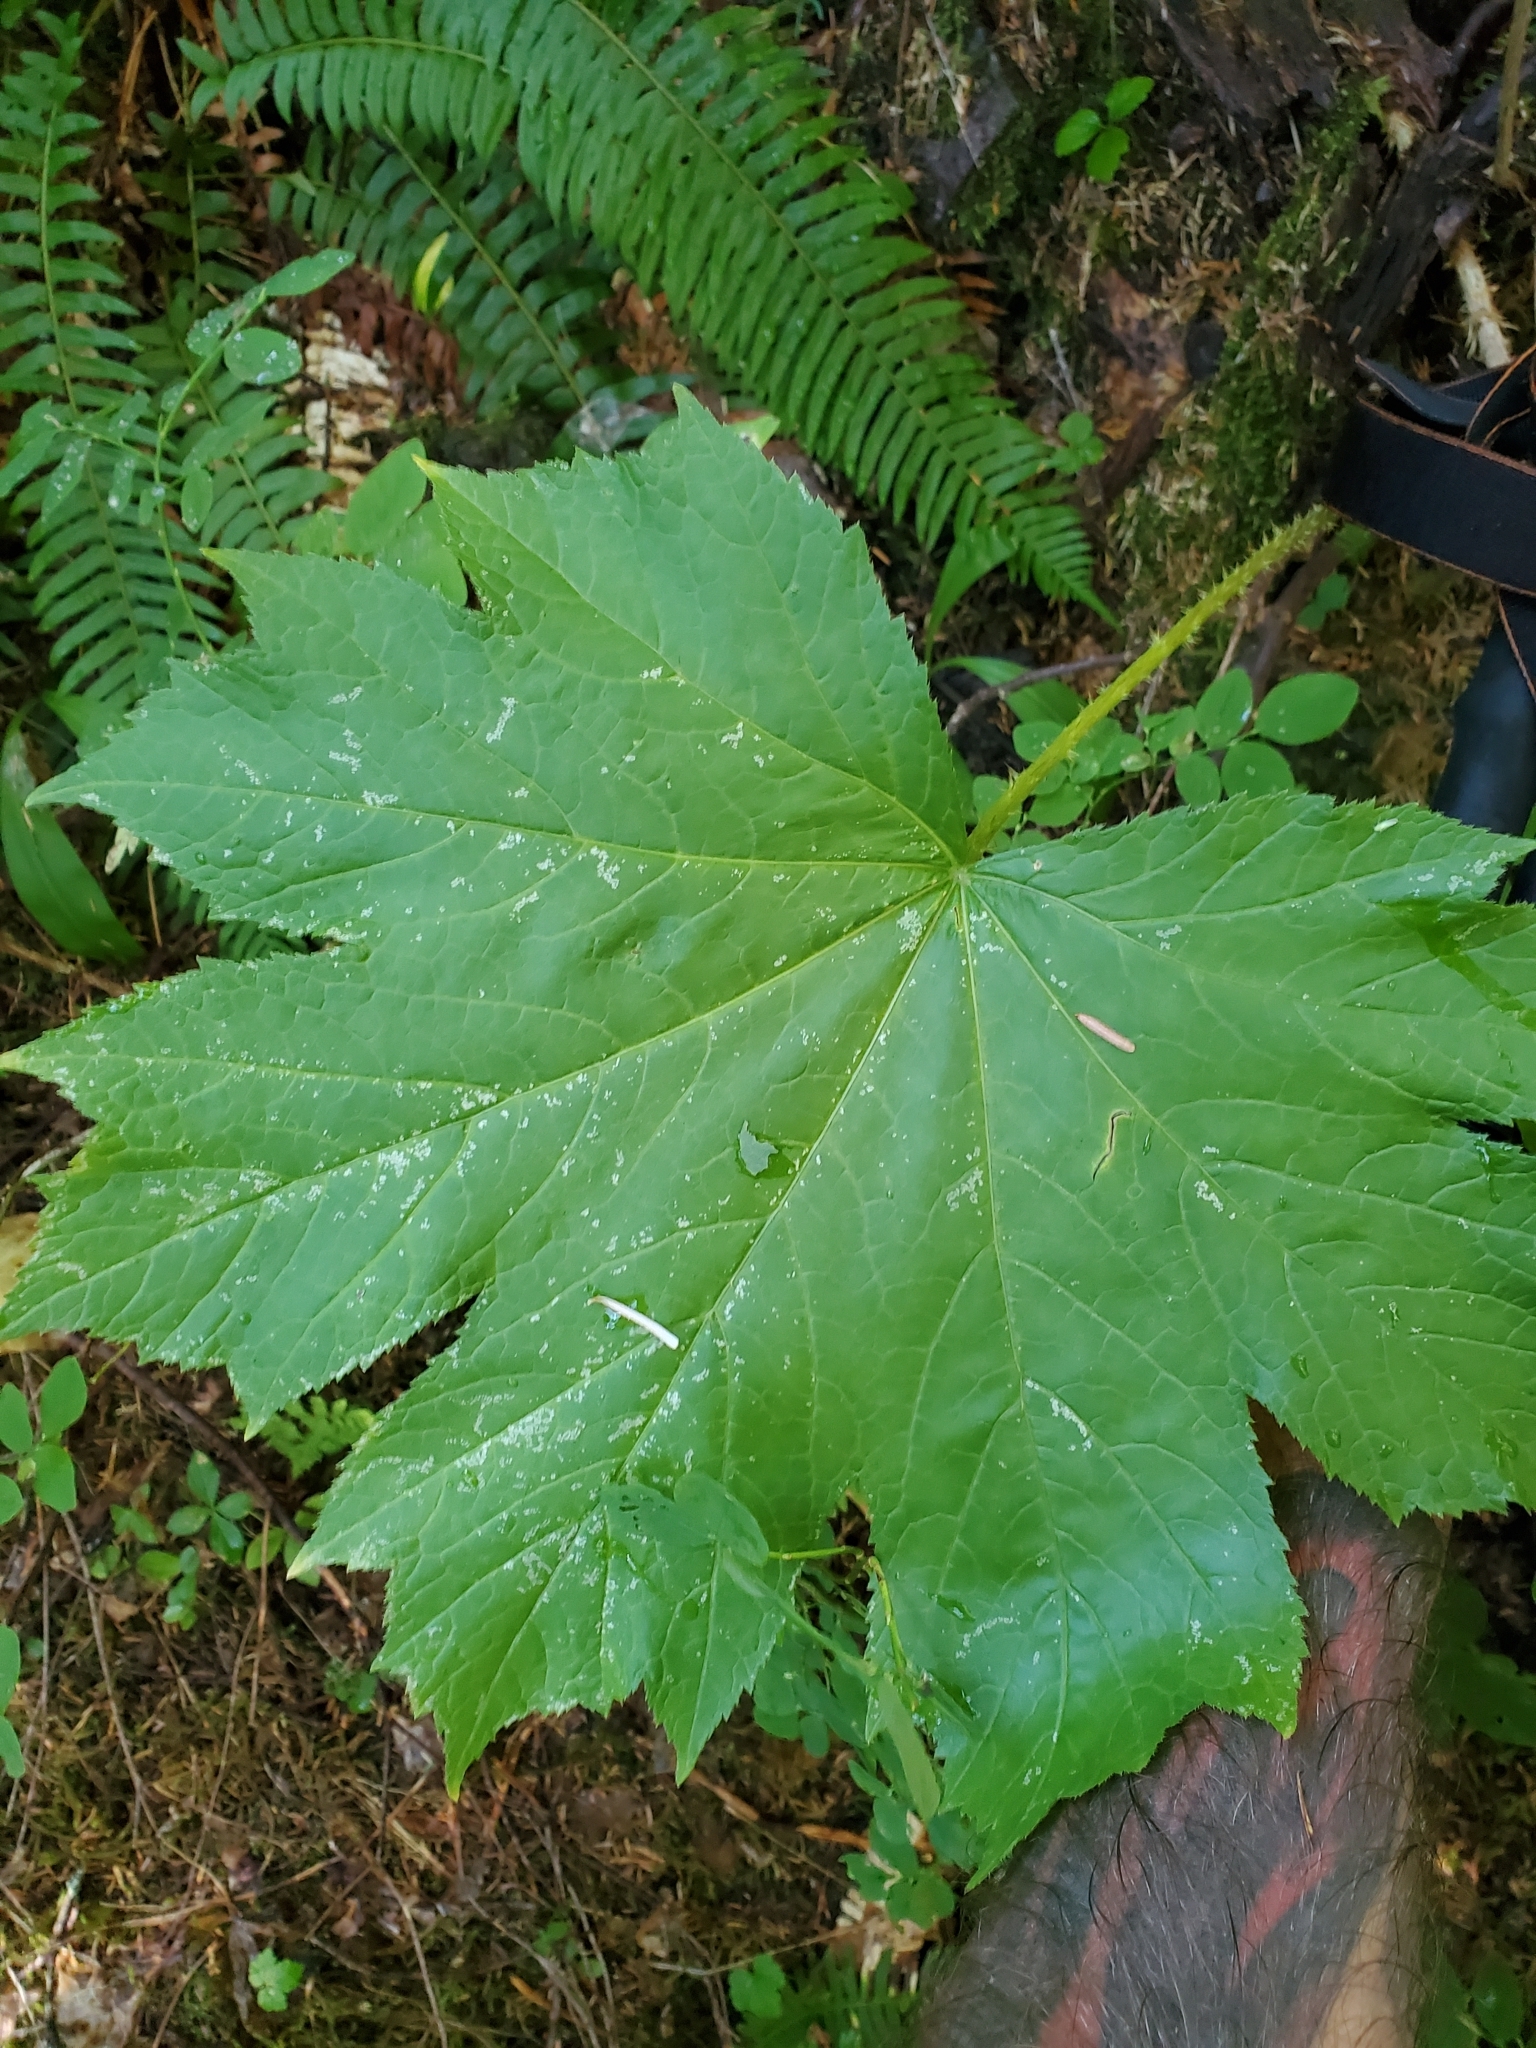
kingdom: Plantae
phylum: Tracheophyta
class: Magnoliopsida
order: Apiales
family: Araliaceae
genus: Oplopanax
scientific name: Oplopanax horridus
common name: Devil's walking-stick
